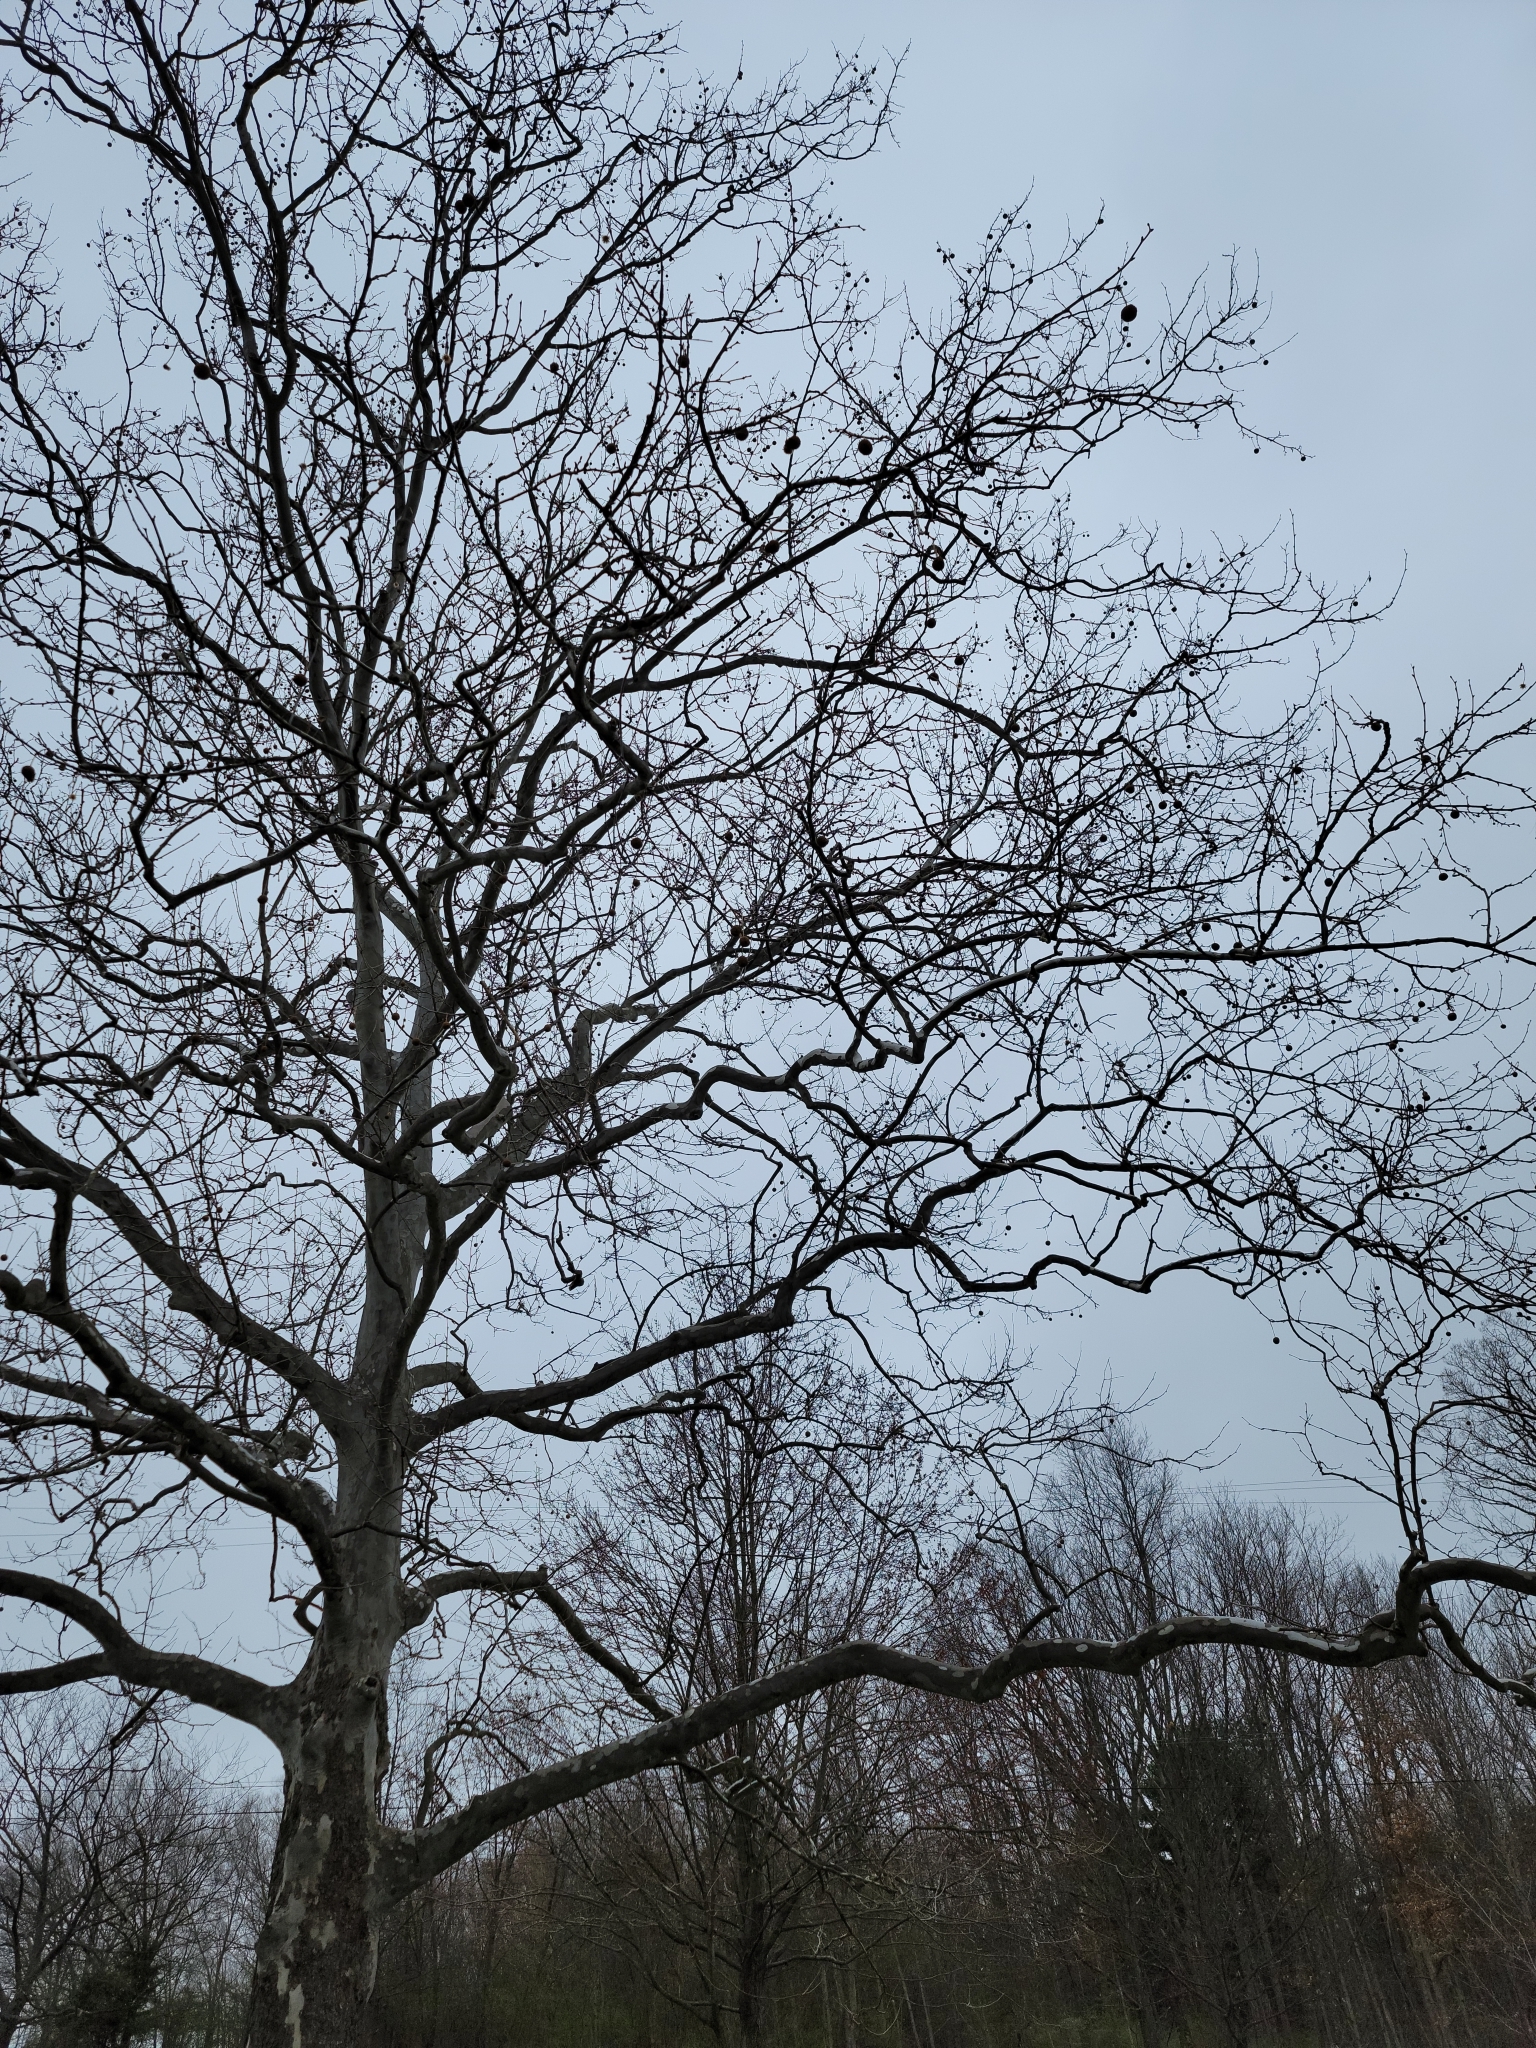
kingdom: Plantae
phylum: Tracheophyta
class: Magnoliopsida
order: Proteales
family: Platanaceae
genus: Platanus
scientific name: Platanus occidentalis
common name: American sycamore
